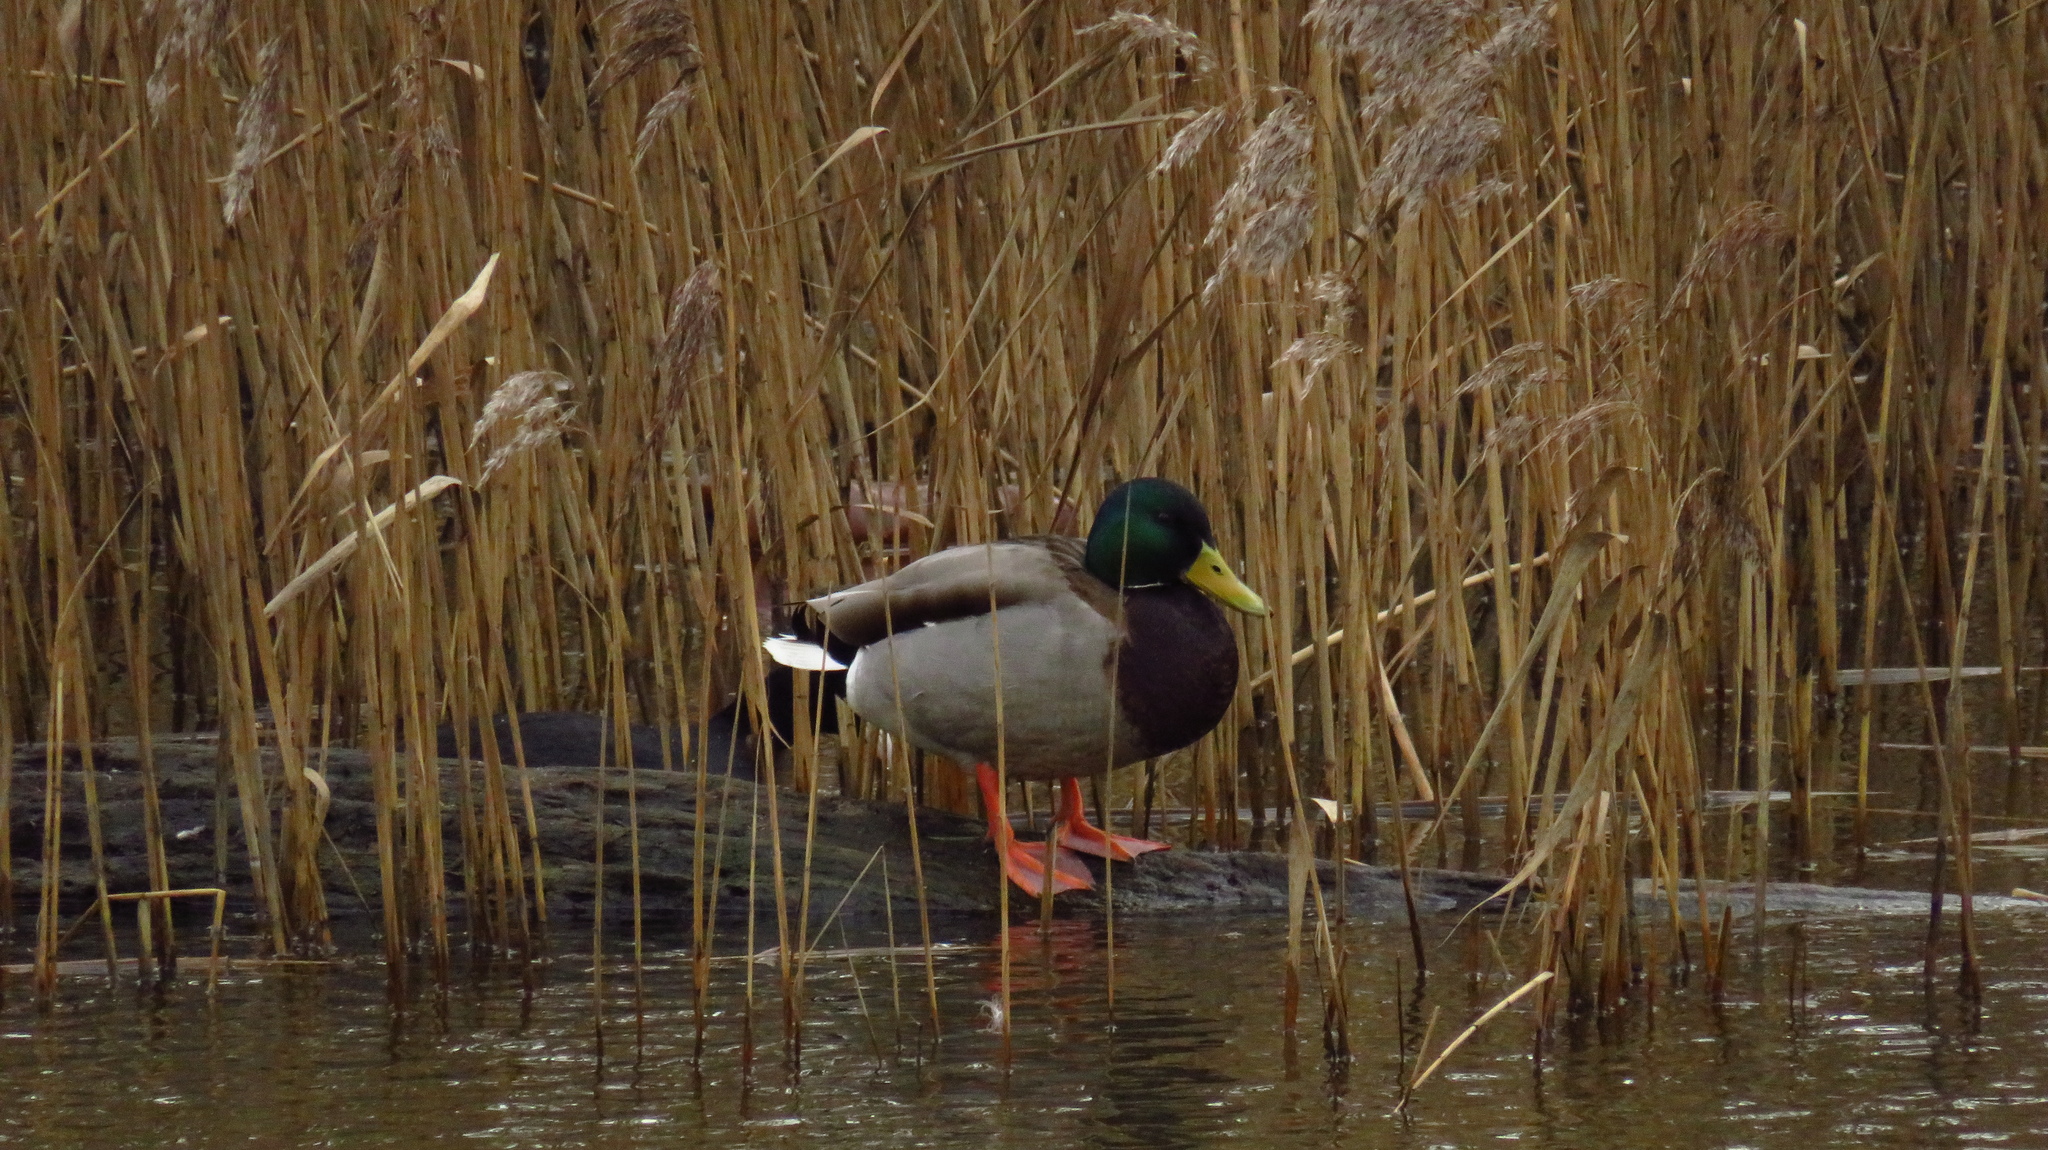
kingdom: Animalia
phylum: Chordata
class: Aves
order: Anseriformes
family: Anatidae
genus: Anas
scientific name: Anas platyrhynchos
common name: Mallard
